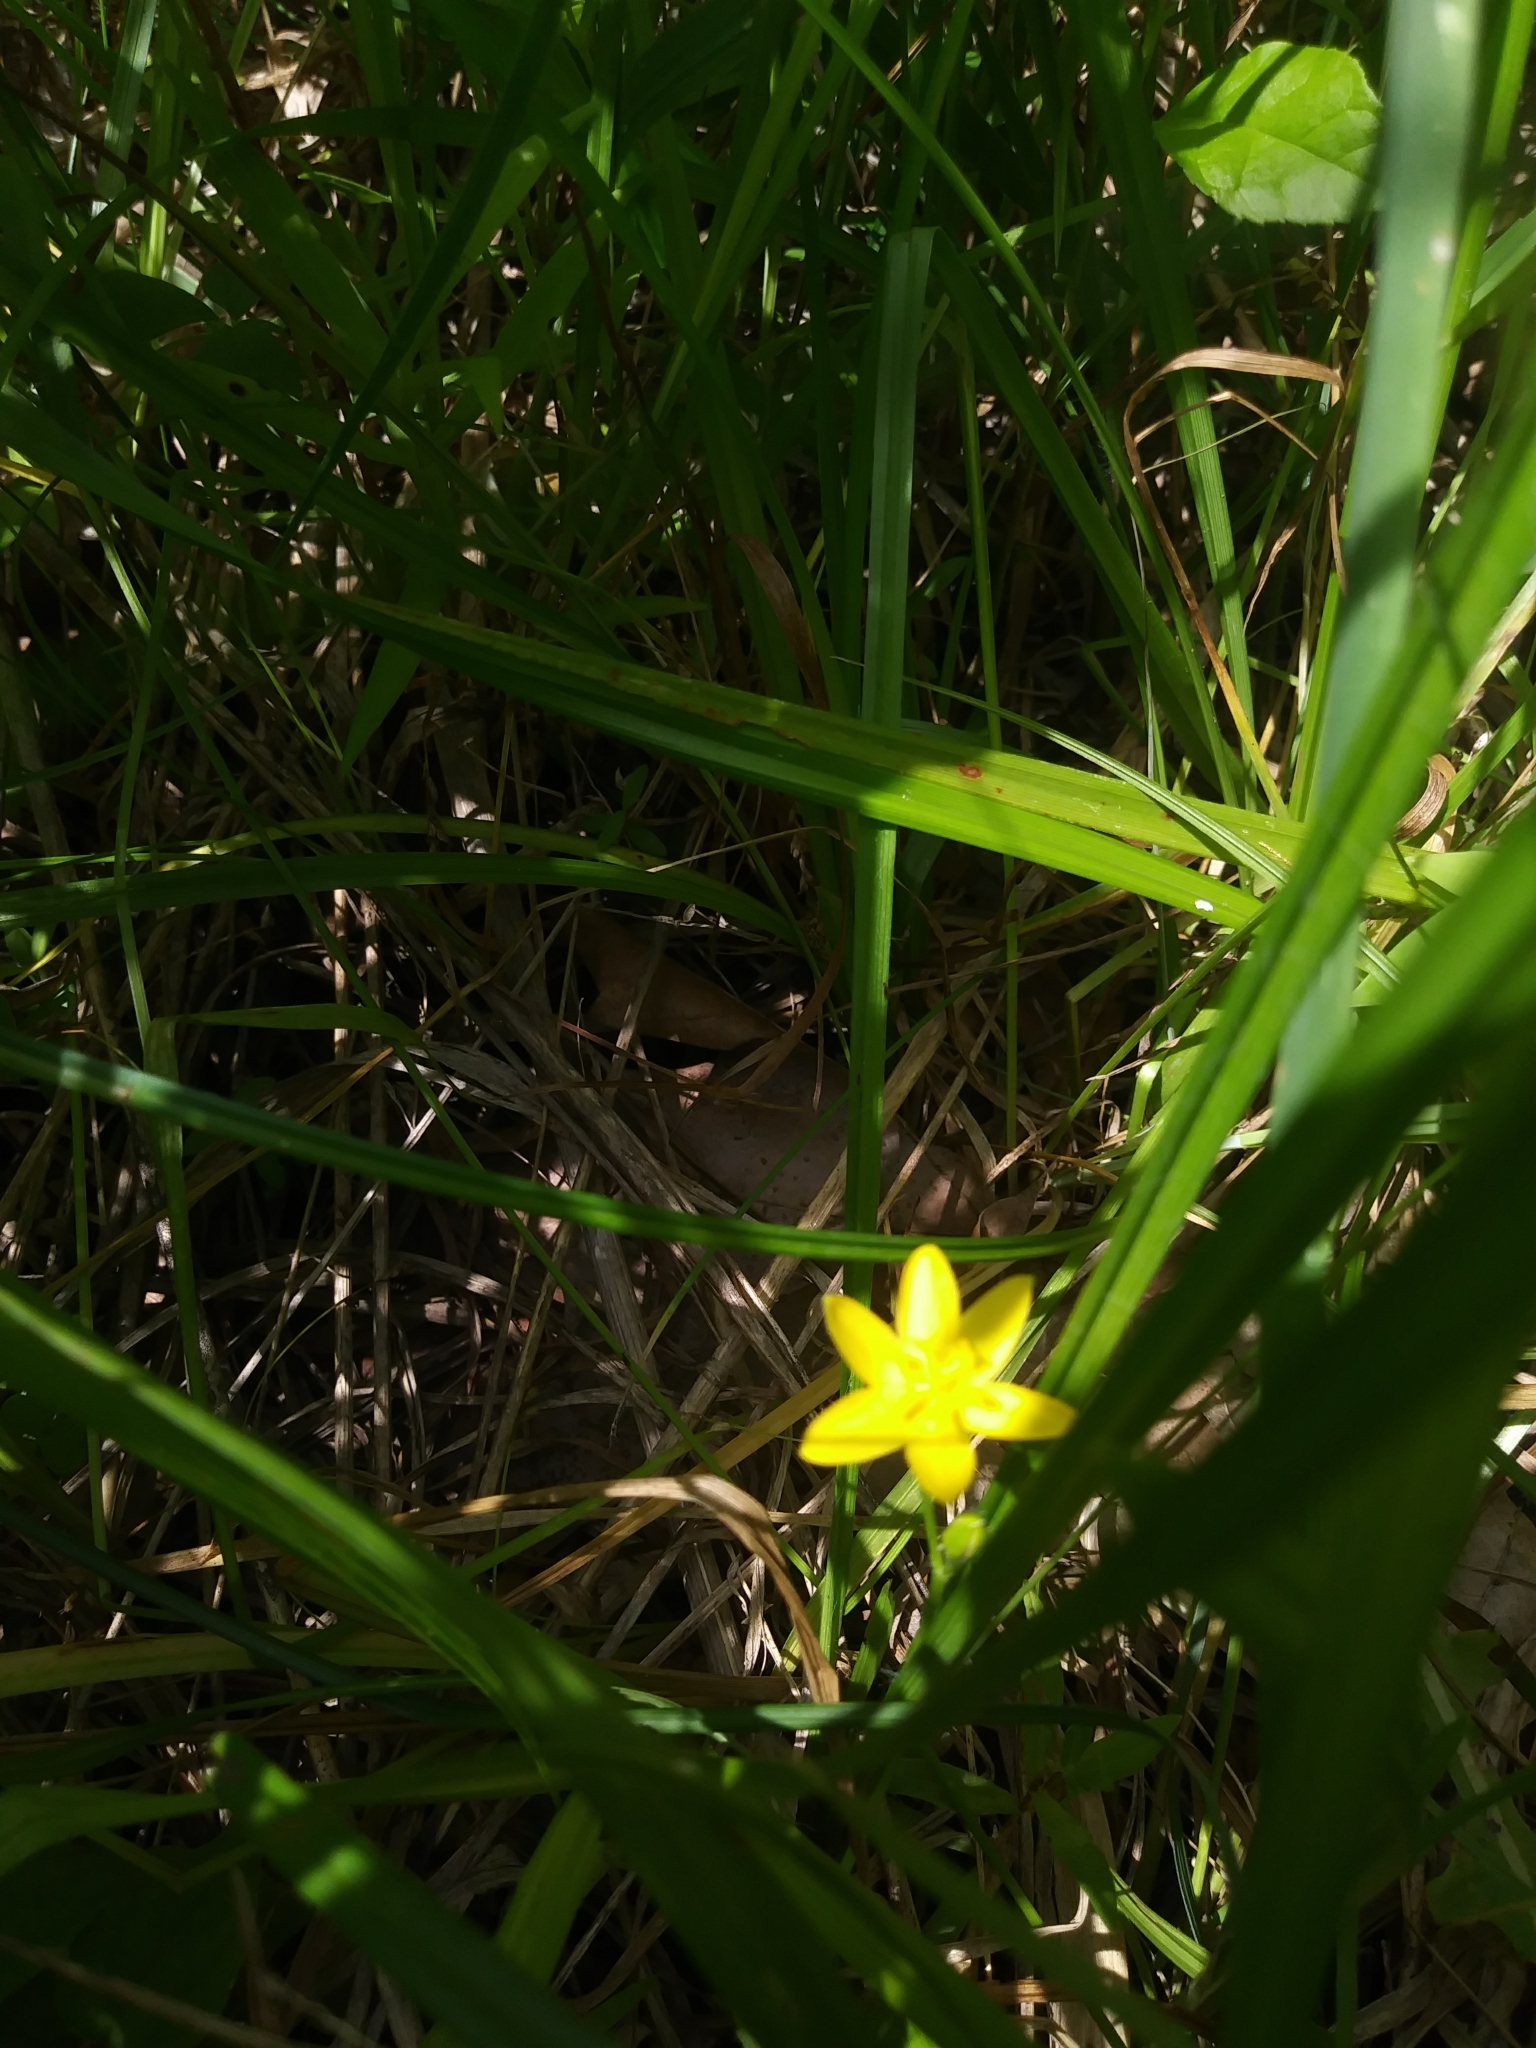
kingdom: Plantae
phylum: Tracheophyta
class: Liliopsida
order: Asparagales
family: Hypoxidaceae
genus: Hypoxis
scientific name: Hypoxis hirsuta
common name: Common goldstar
